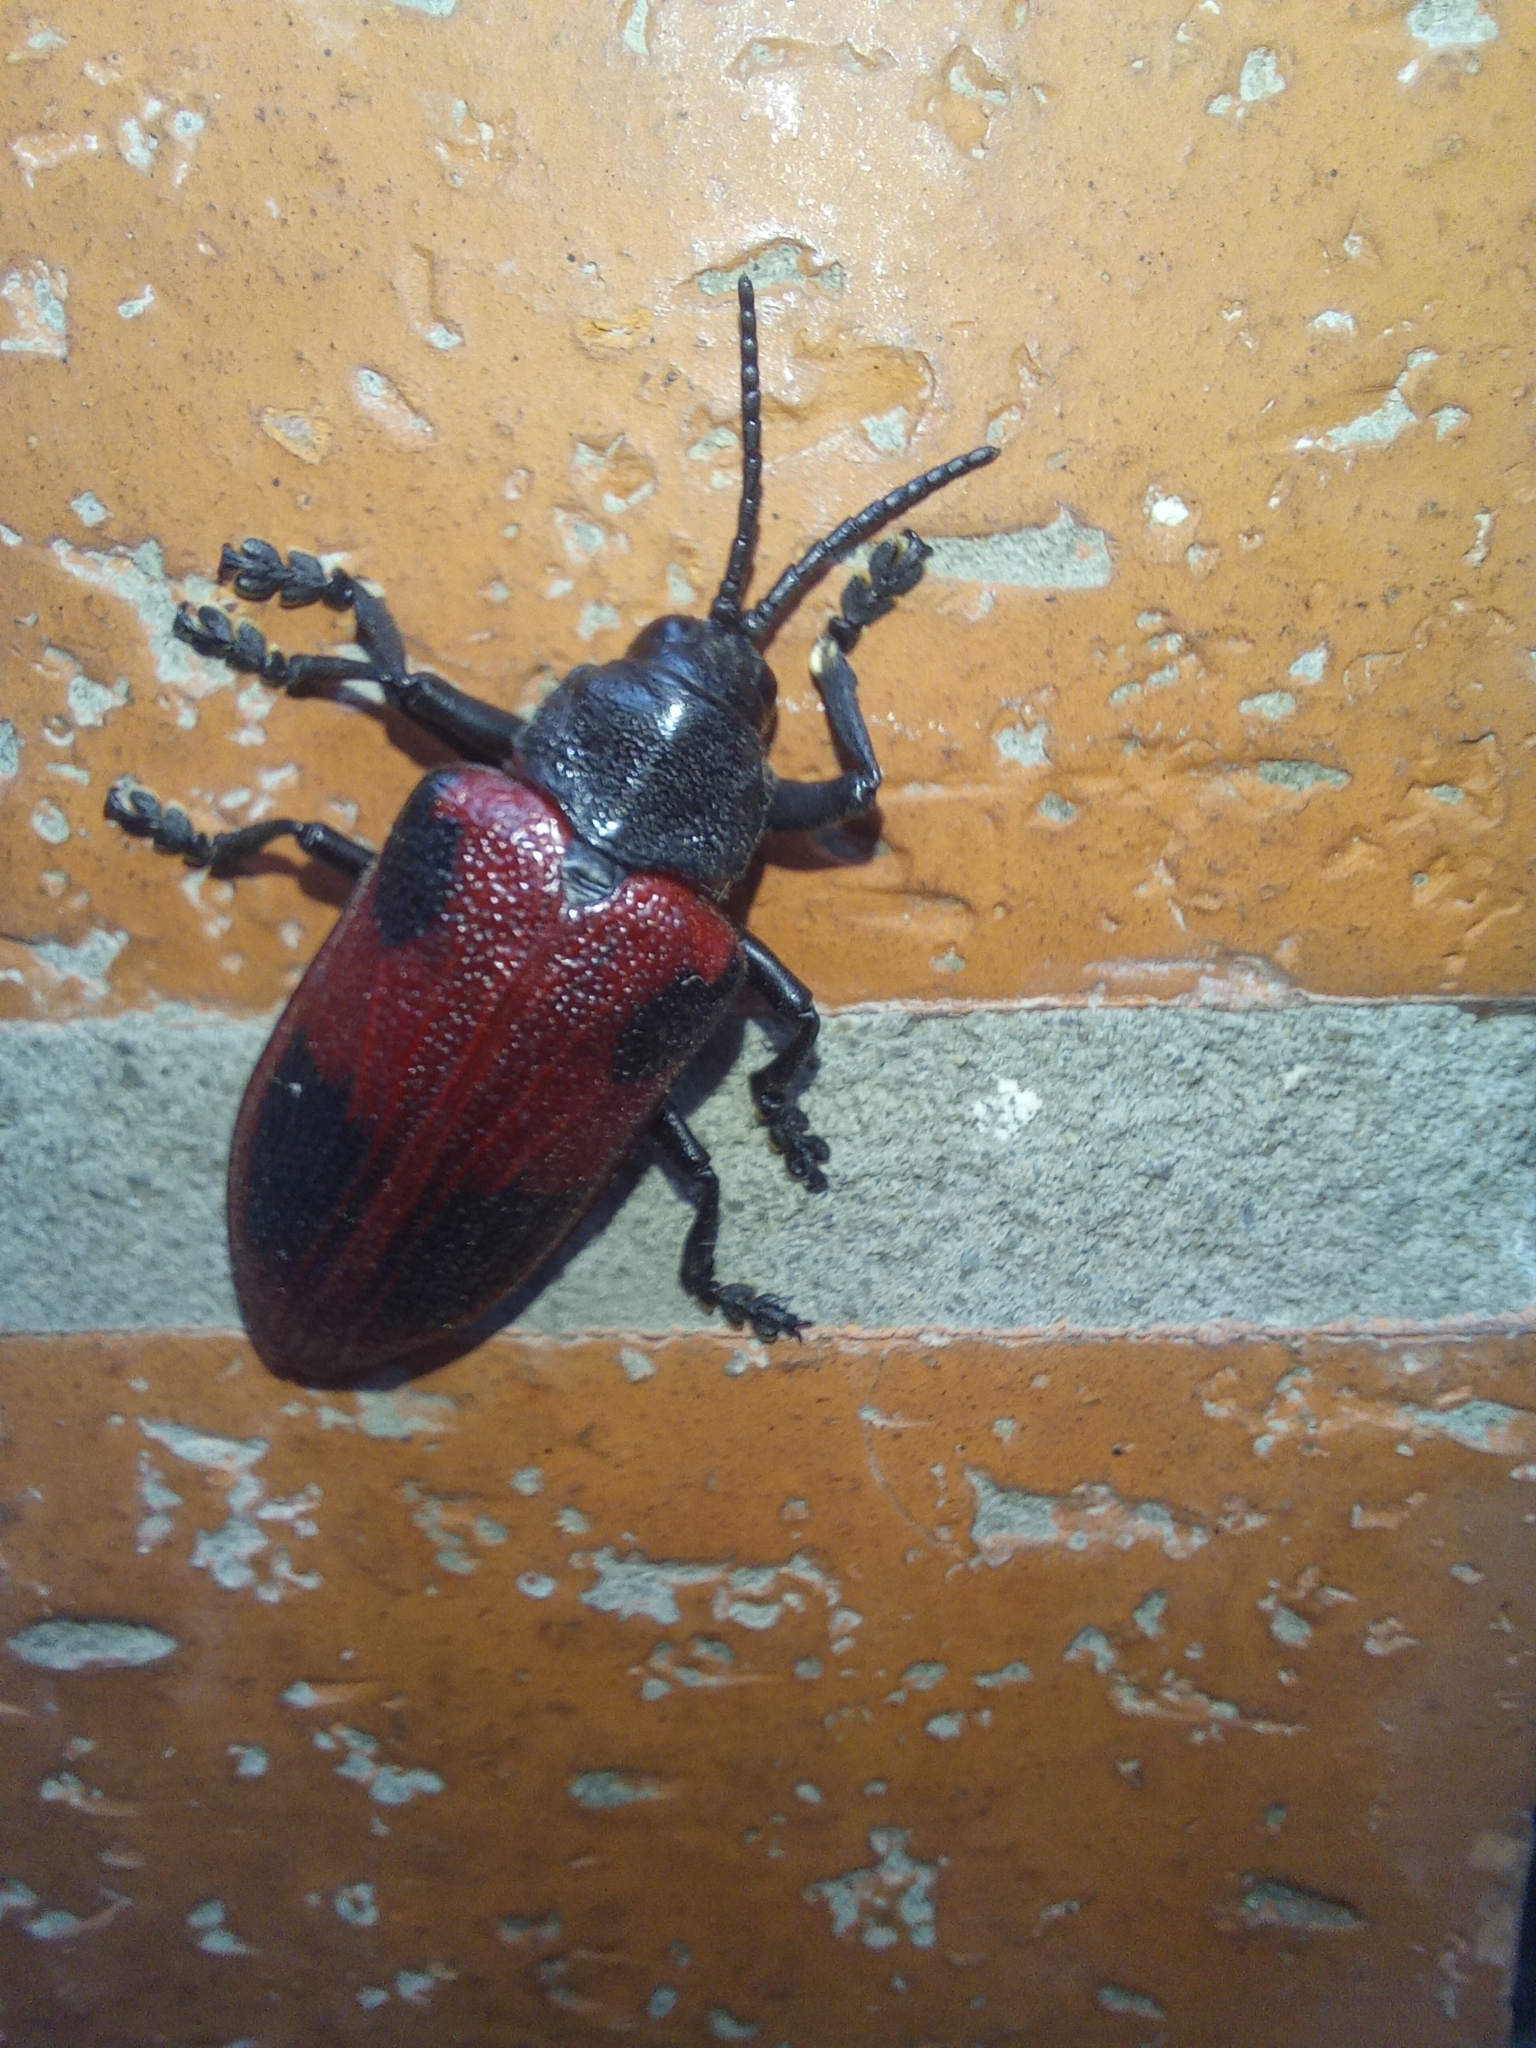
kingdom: Animalia
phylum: Arthropoda
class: Insecta
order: Coleoptera
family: Chrysomelidae
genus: Coraliomela
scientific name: Coraliomela quadrimaculata
